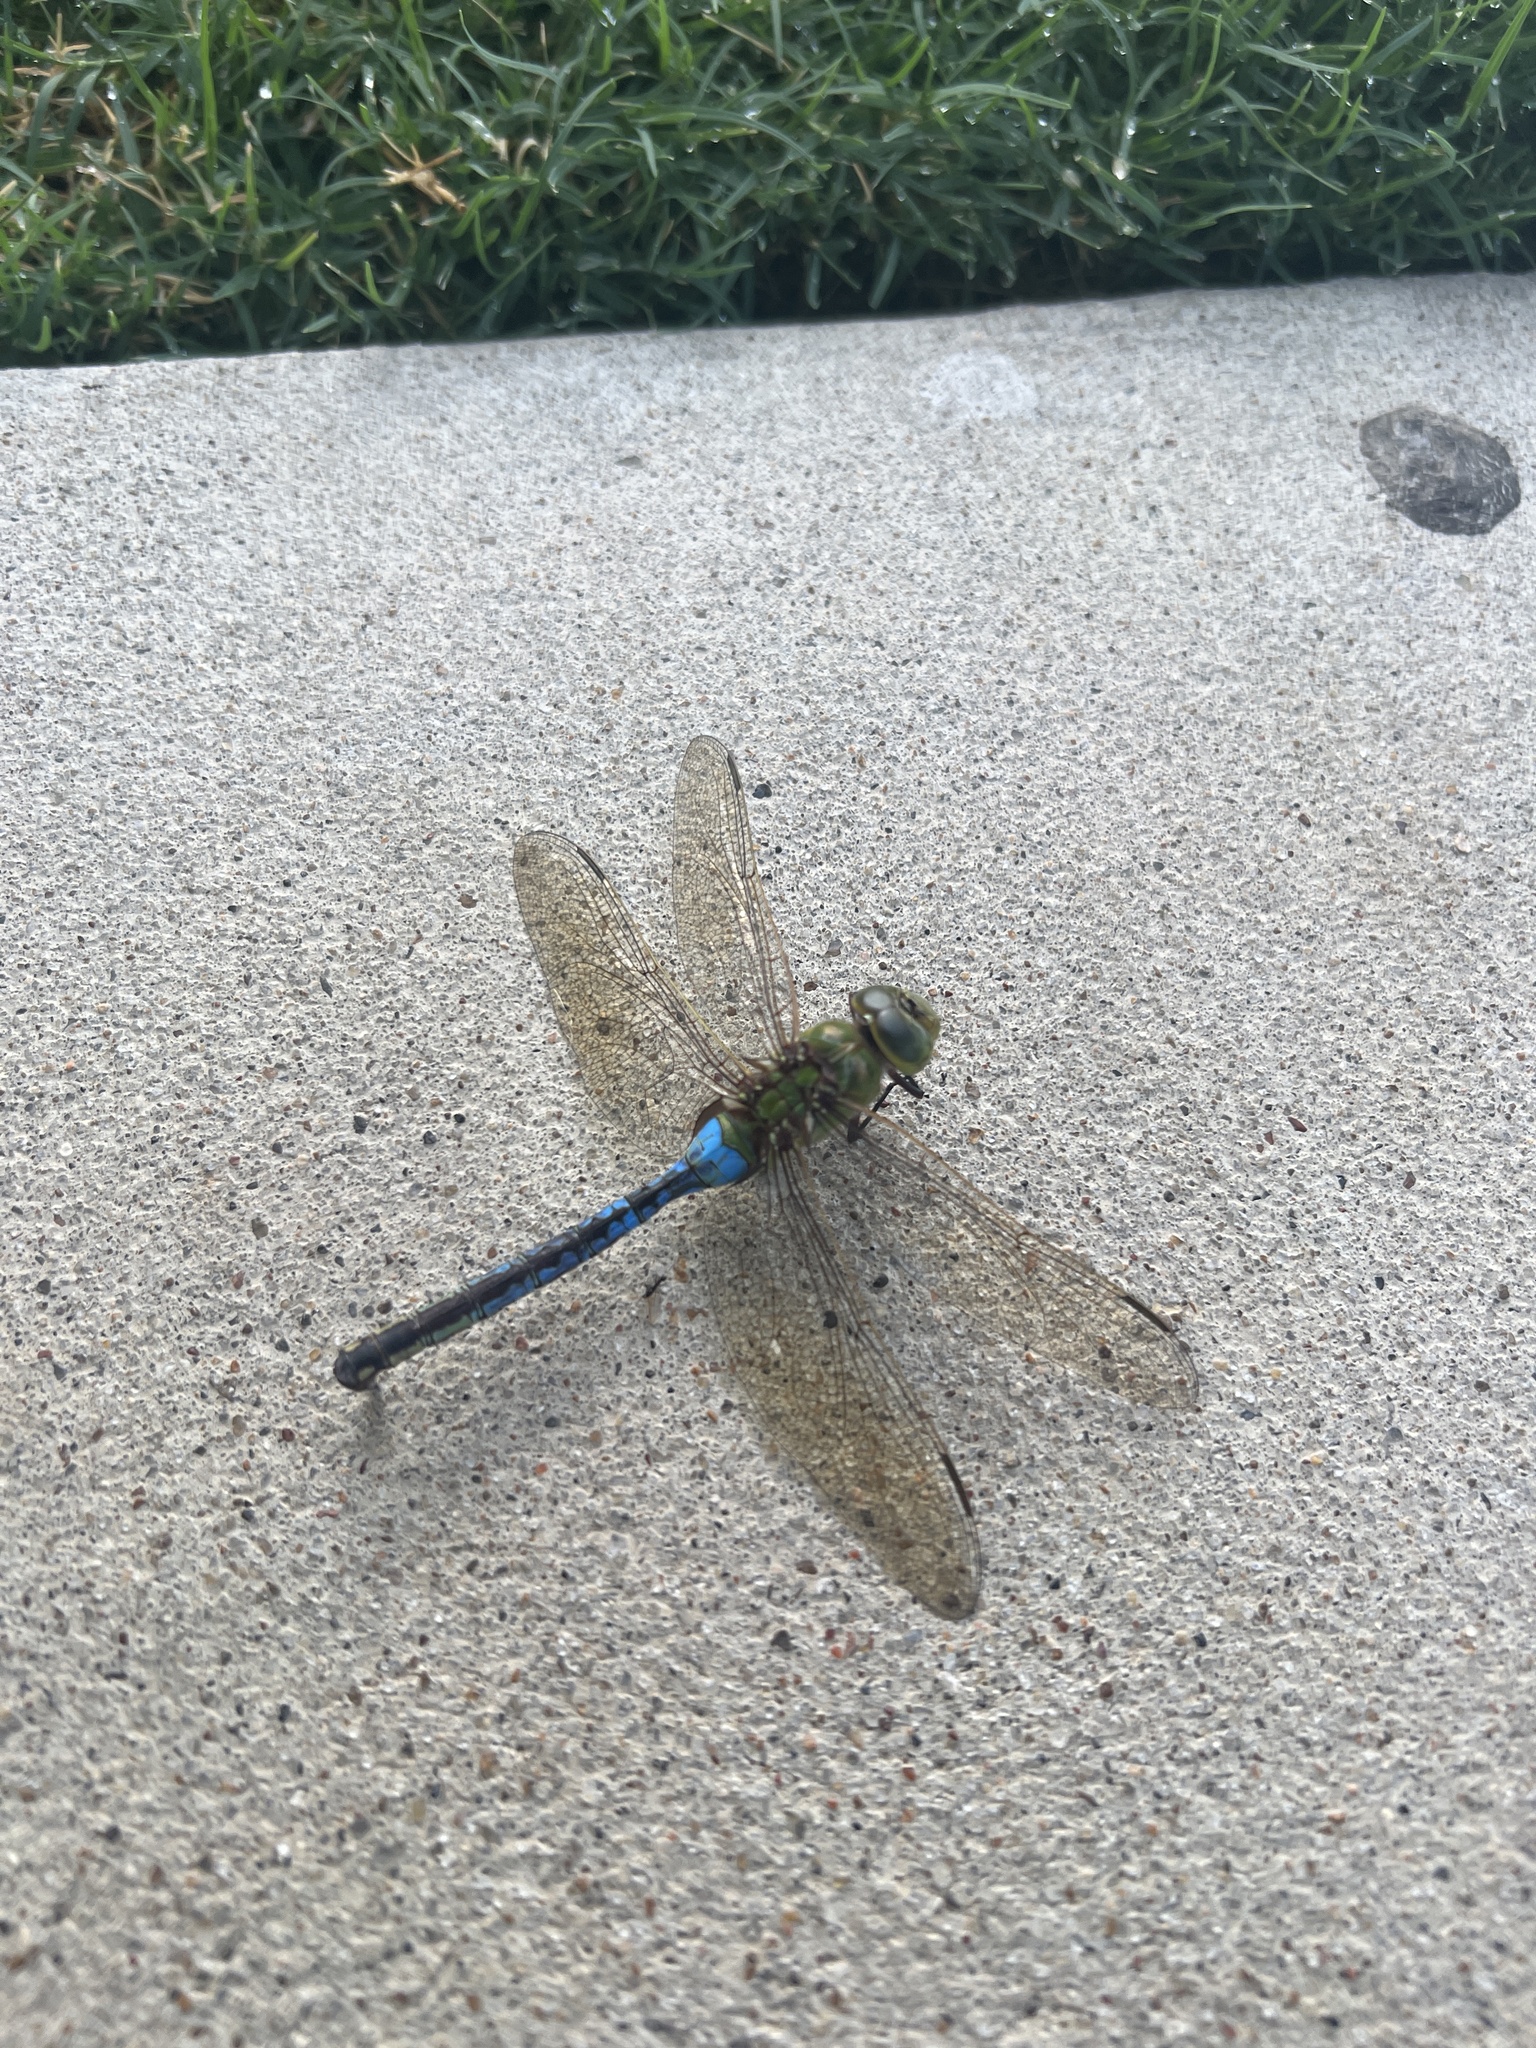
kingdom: Animalia
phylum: Arthropoda
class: Insecta
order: Odonata
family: Aeshnidae
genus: Anax
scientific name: Anax junius
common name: Common green darner
